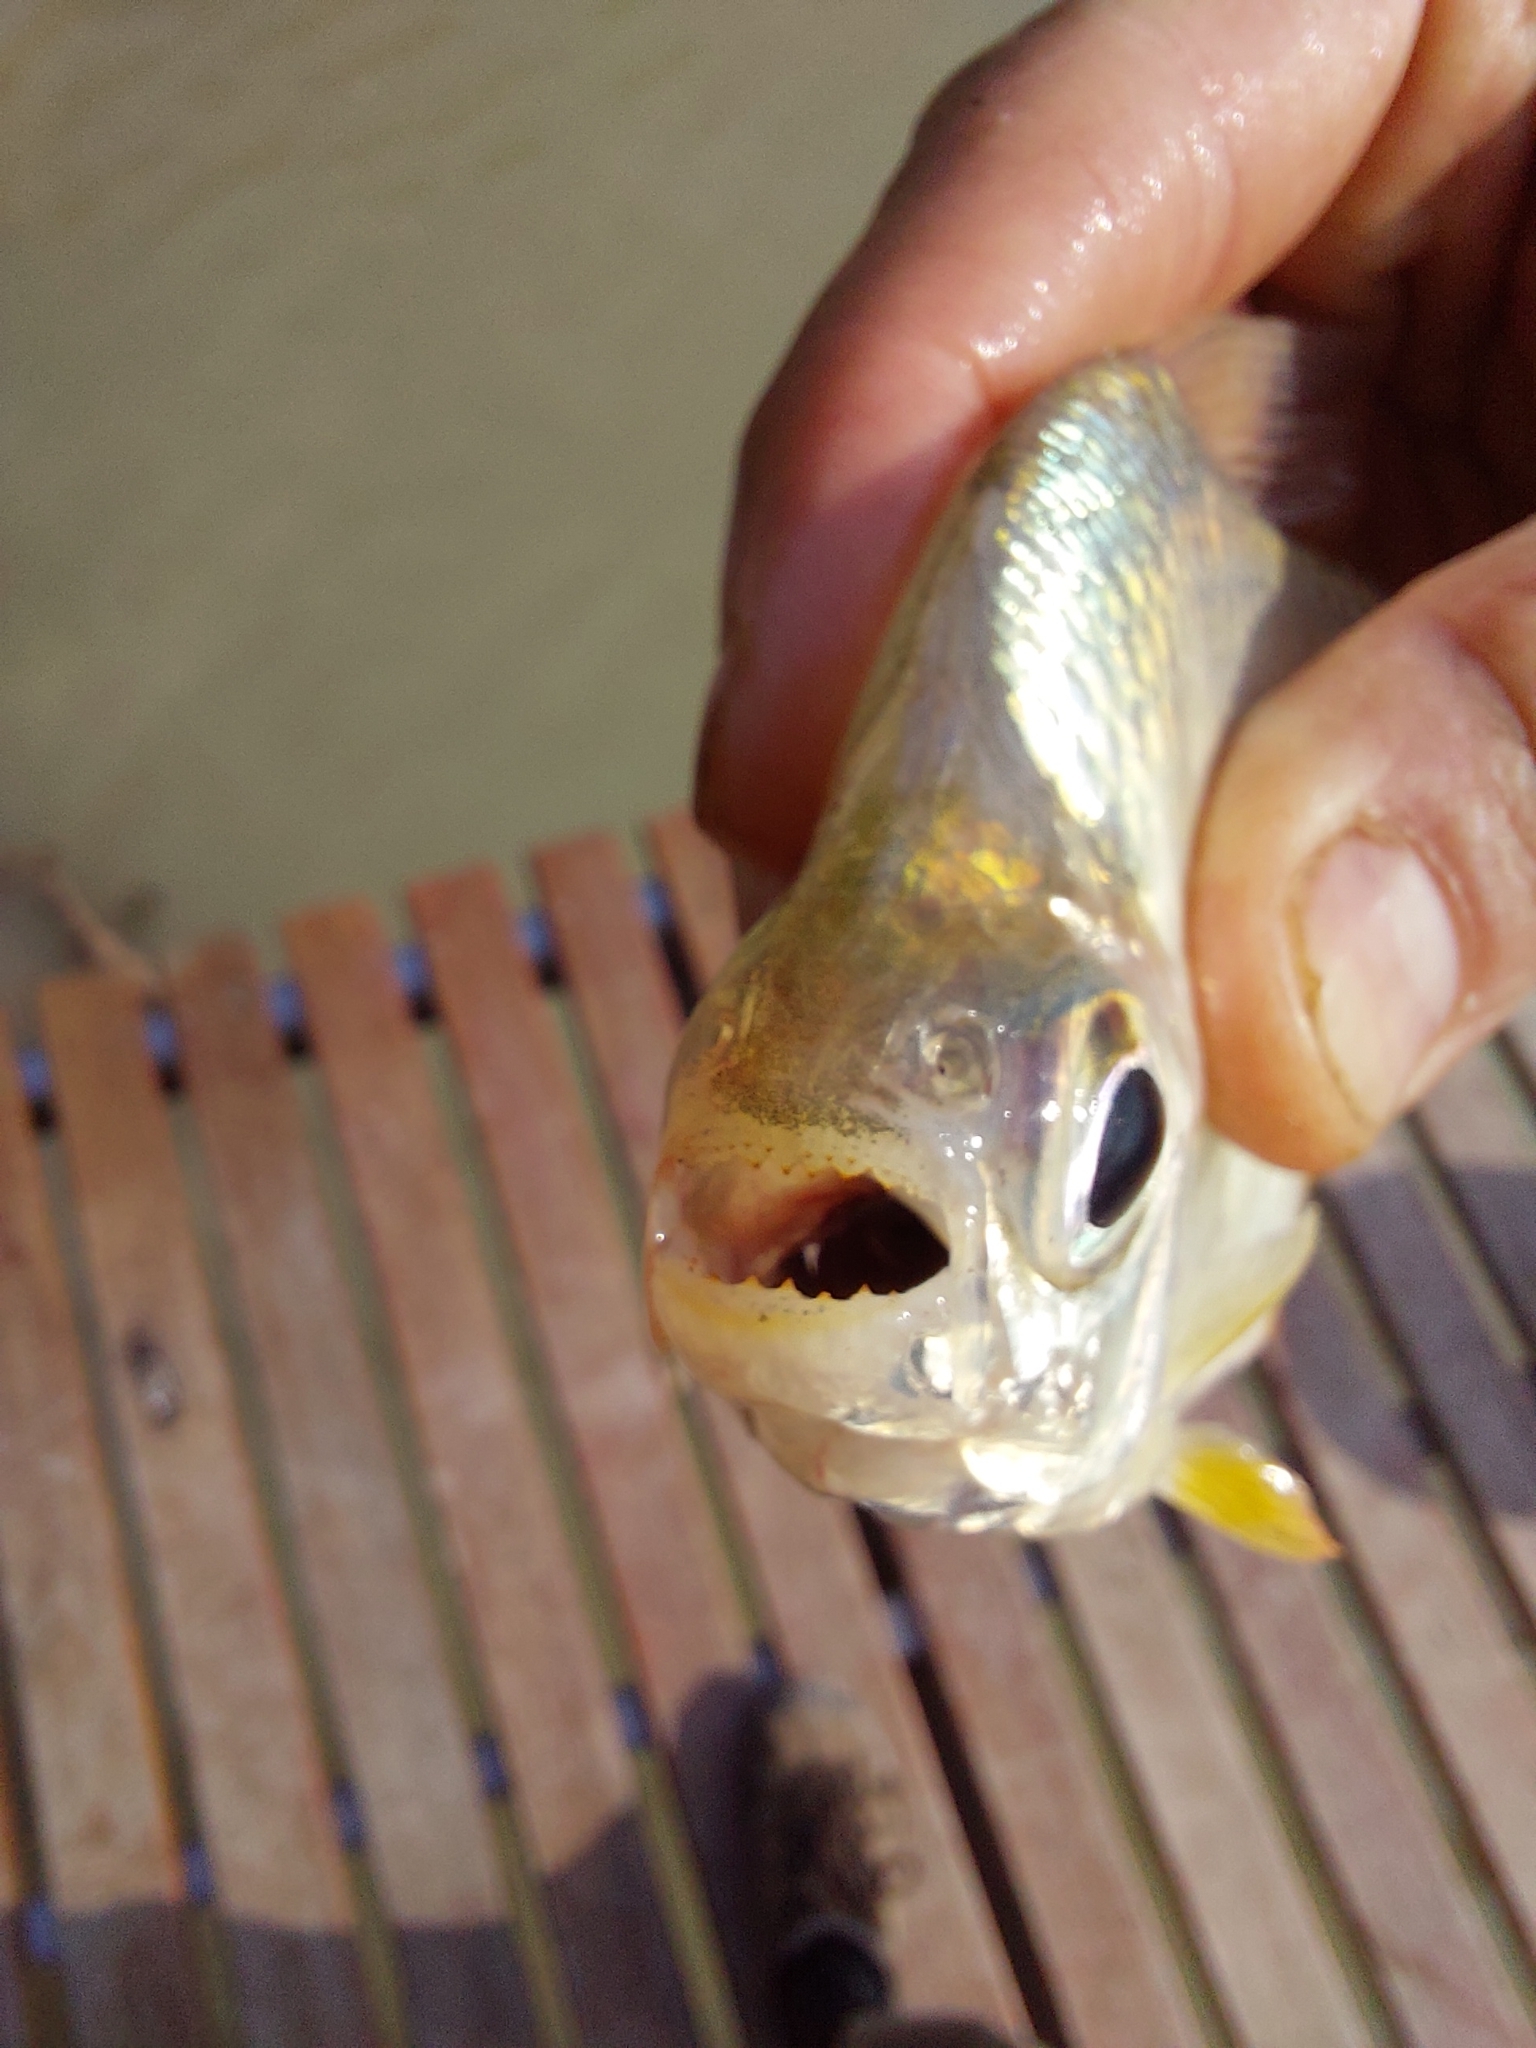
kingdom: Animalia
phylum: Chordata
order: Characiformes
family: Characidae
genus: Tetragonopterus
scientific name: Tetragonopterus argenteus
